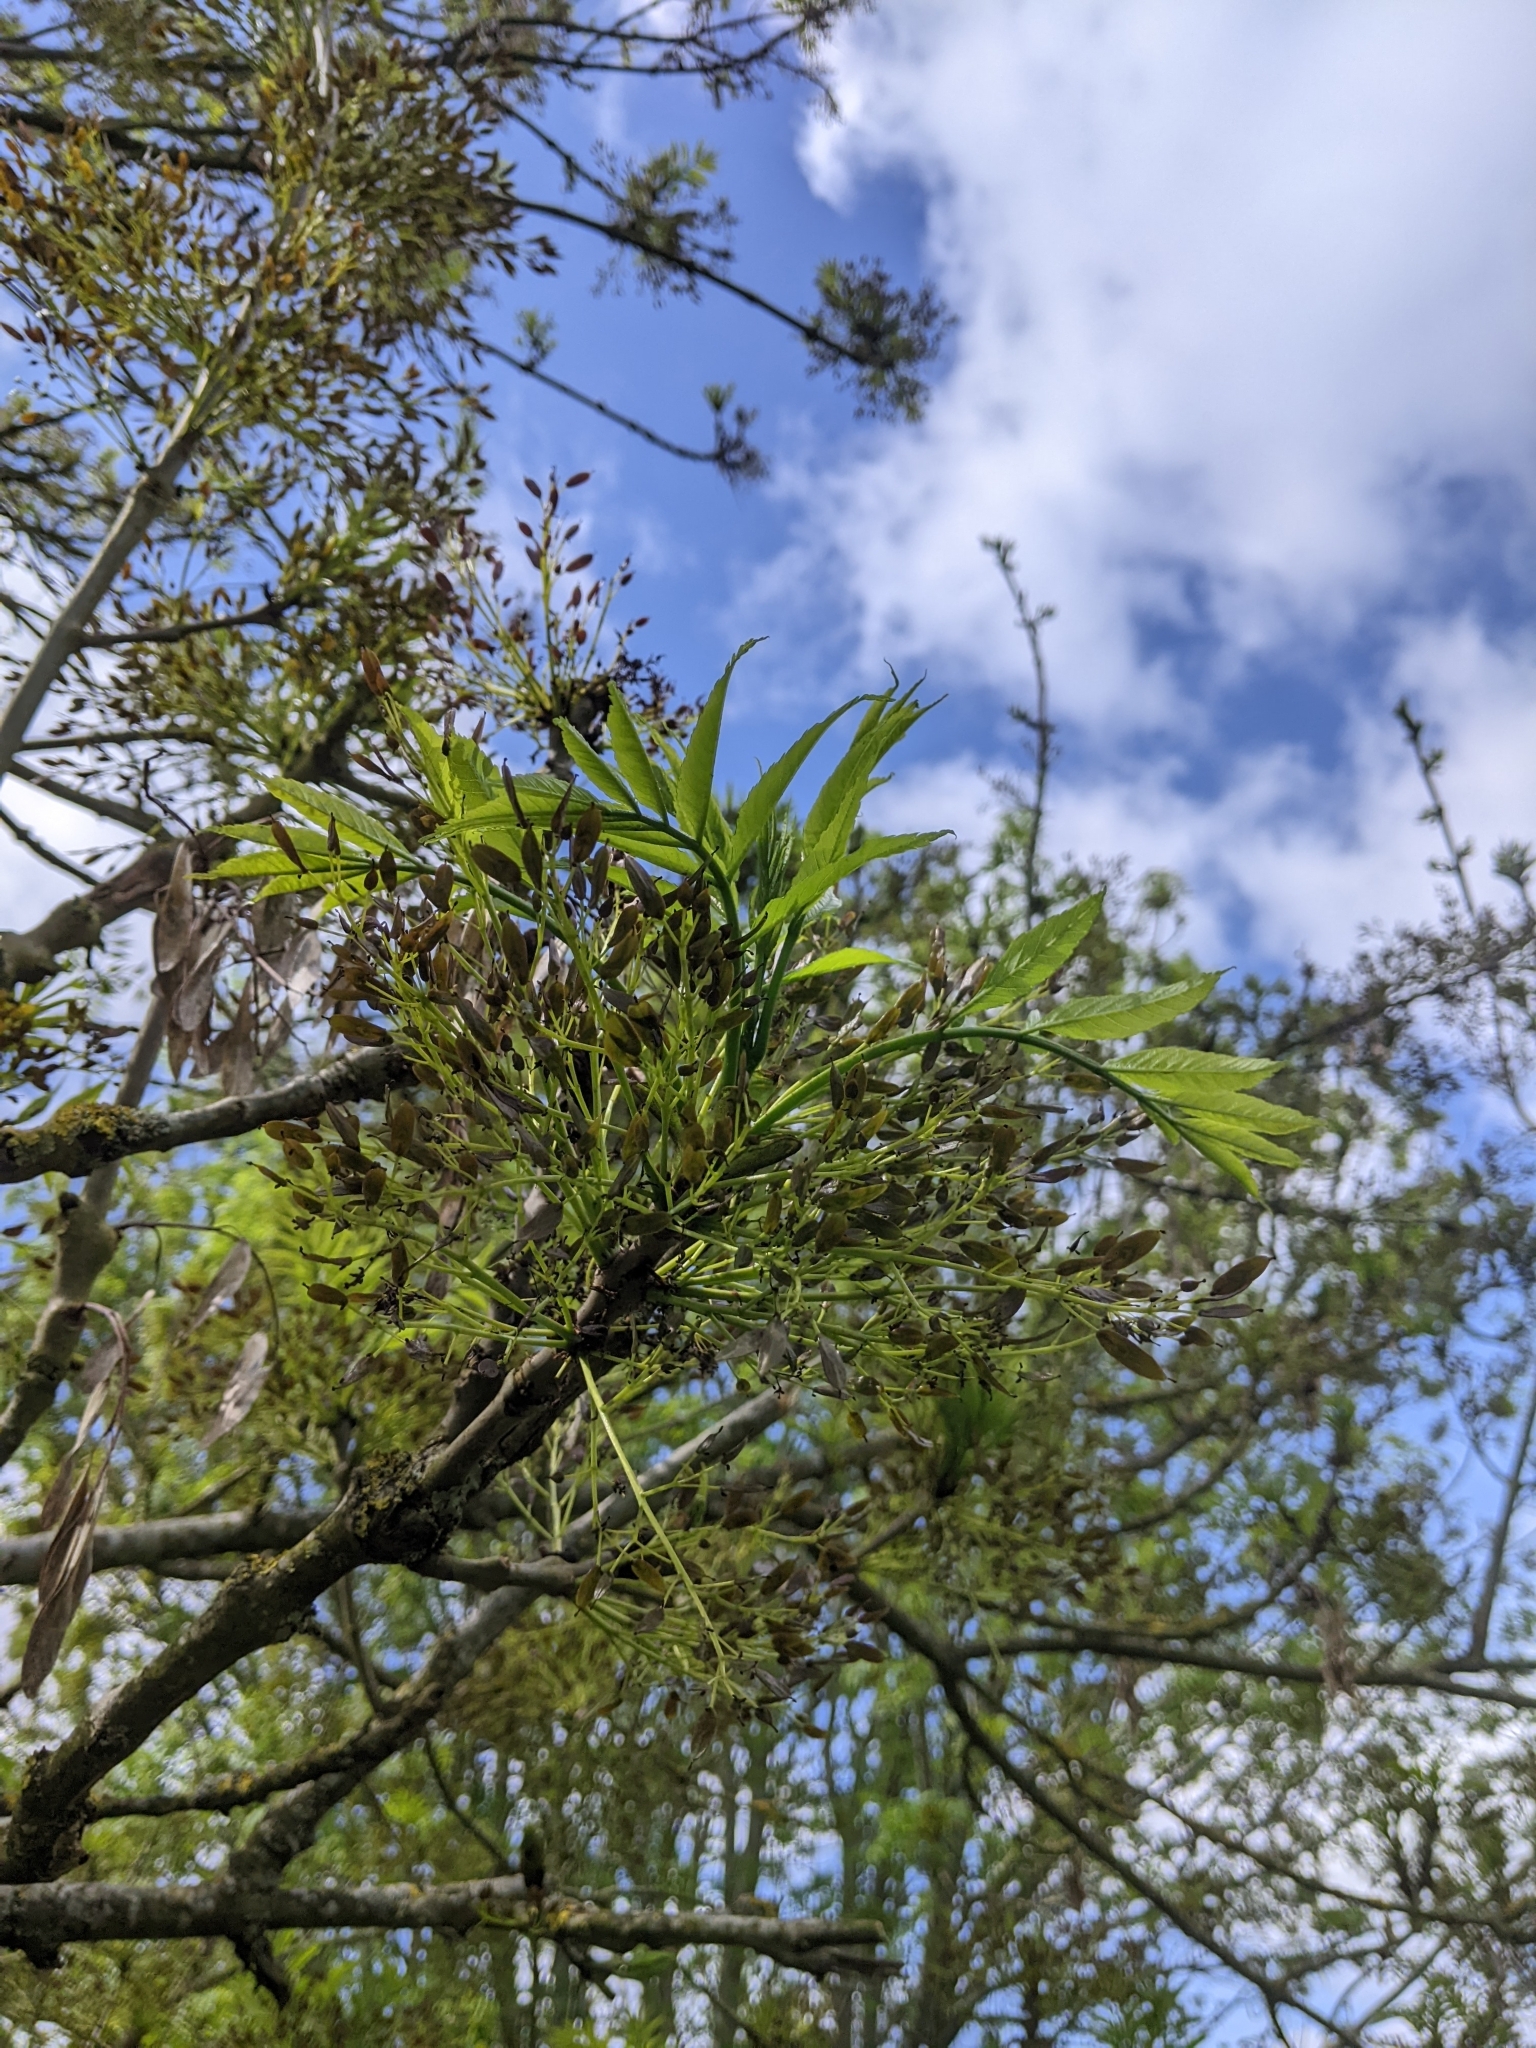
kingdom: Plantae
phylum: Tracheophyta
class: Magnoliopsida
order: Lamiales
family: Oleaceae
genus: Fraxinus
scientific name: Fraxinus excelsior
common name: European ash
